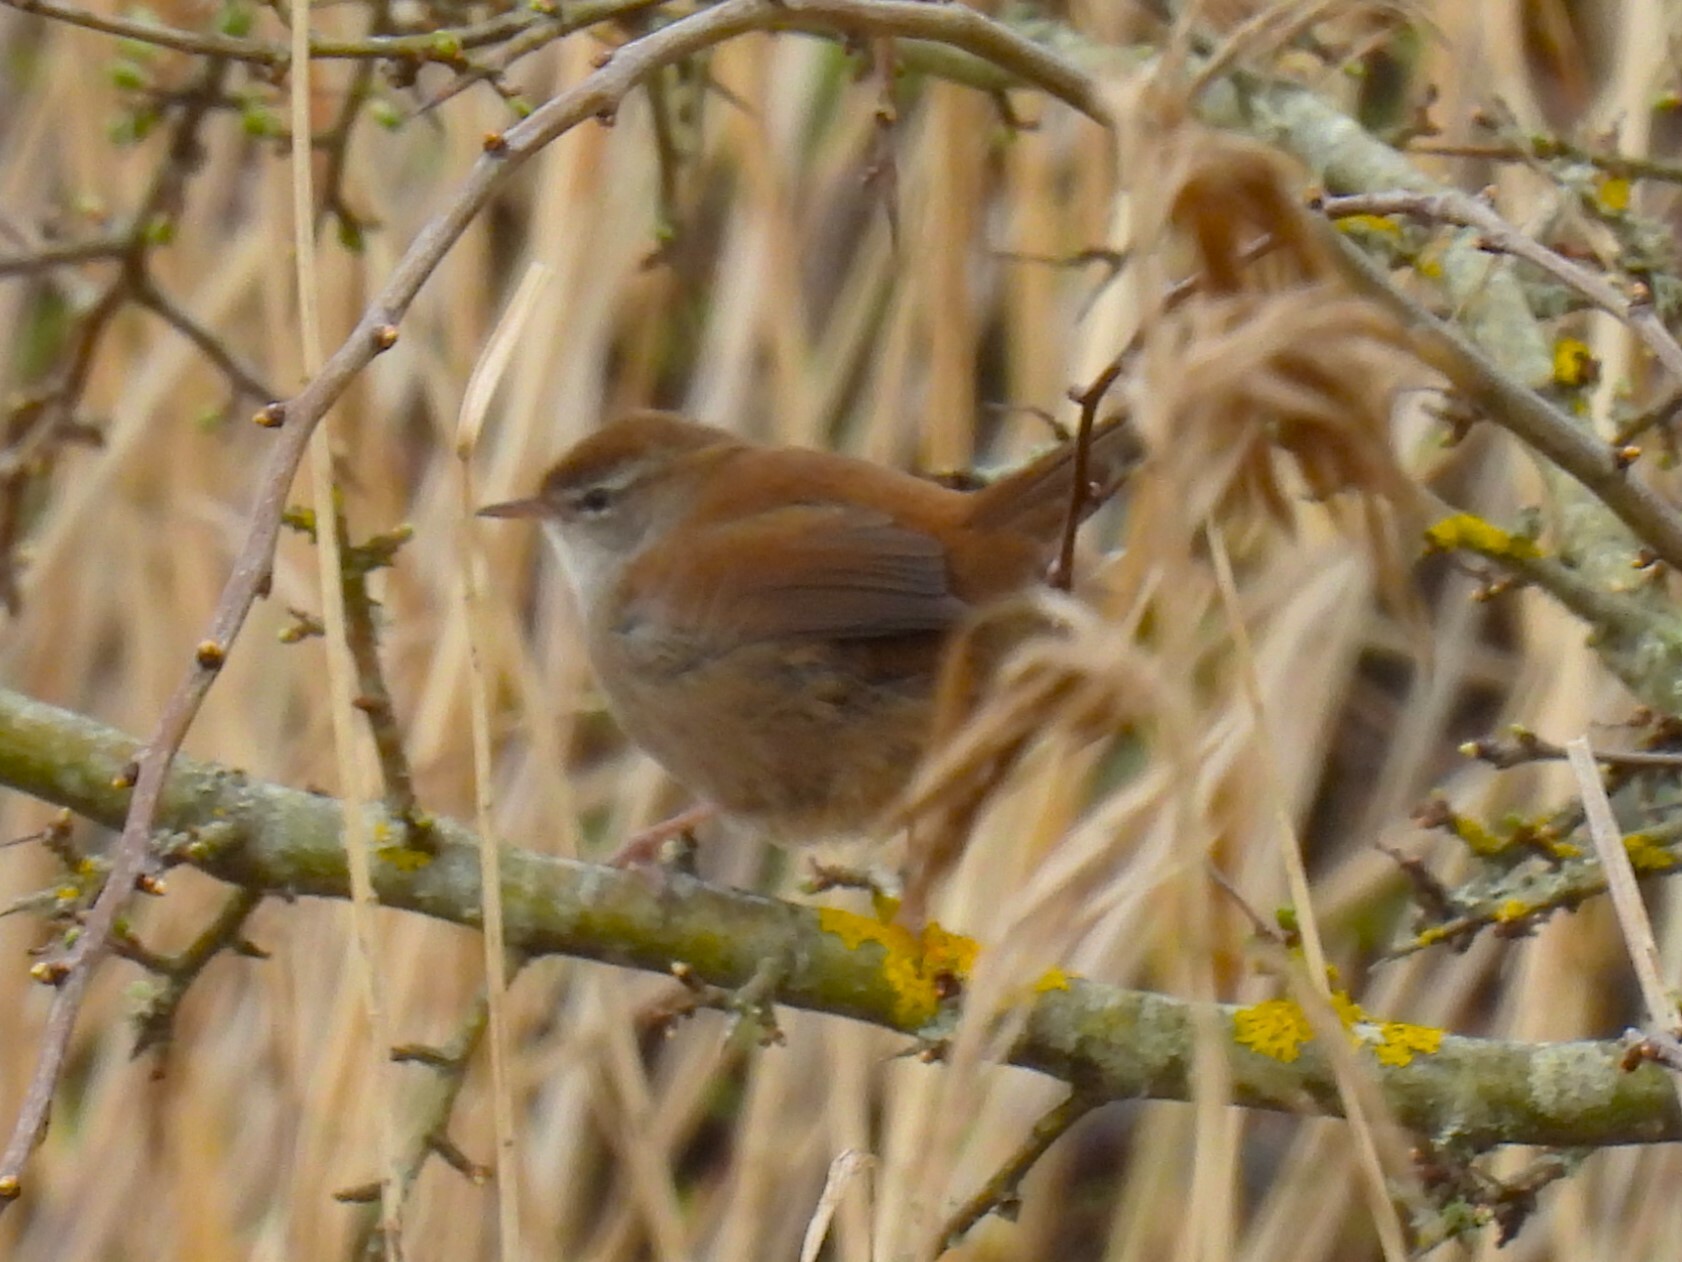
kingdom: Animalia
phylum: Chordata
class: Aves
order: Passeriformes
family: Cettiidae
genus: Cettia
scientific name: Cettia cetti
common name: Cetti's warbler
